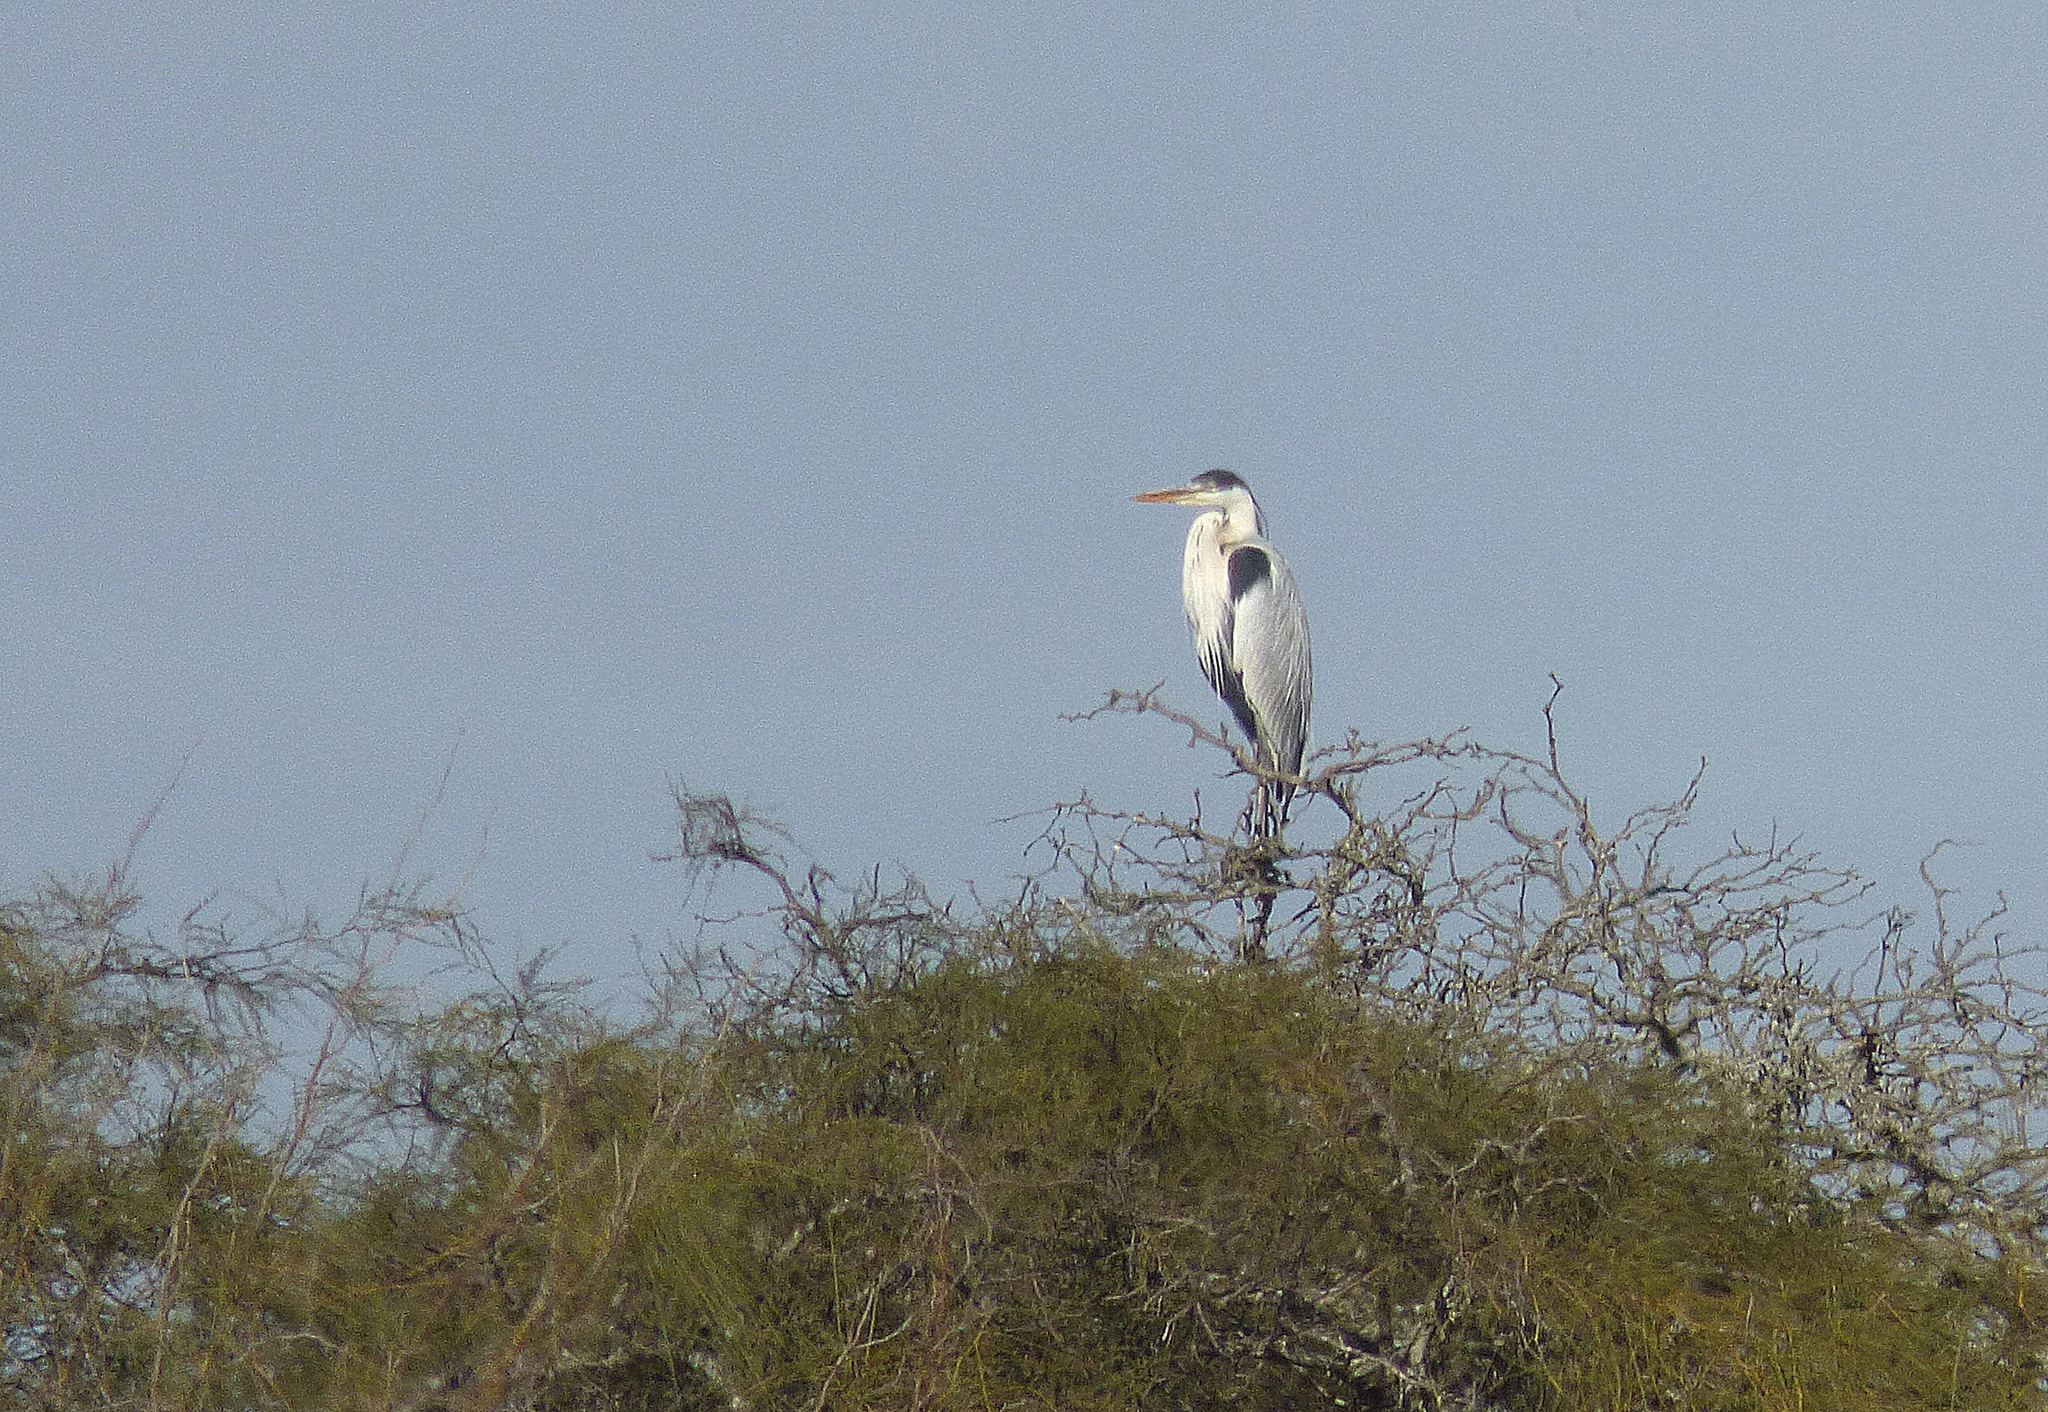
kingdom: Animalia
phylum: Chordata
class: Aves
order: Pelecaniformes
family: Ardeidae
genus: Ardea
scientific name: Ardea cocoi
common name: Cocoi heron
